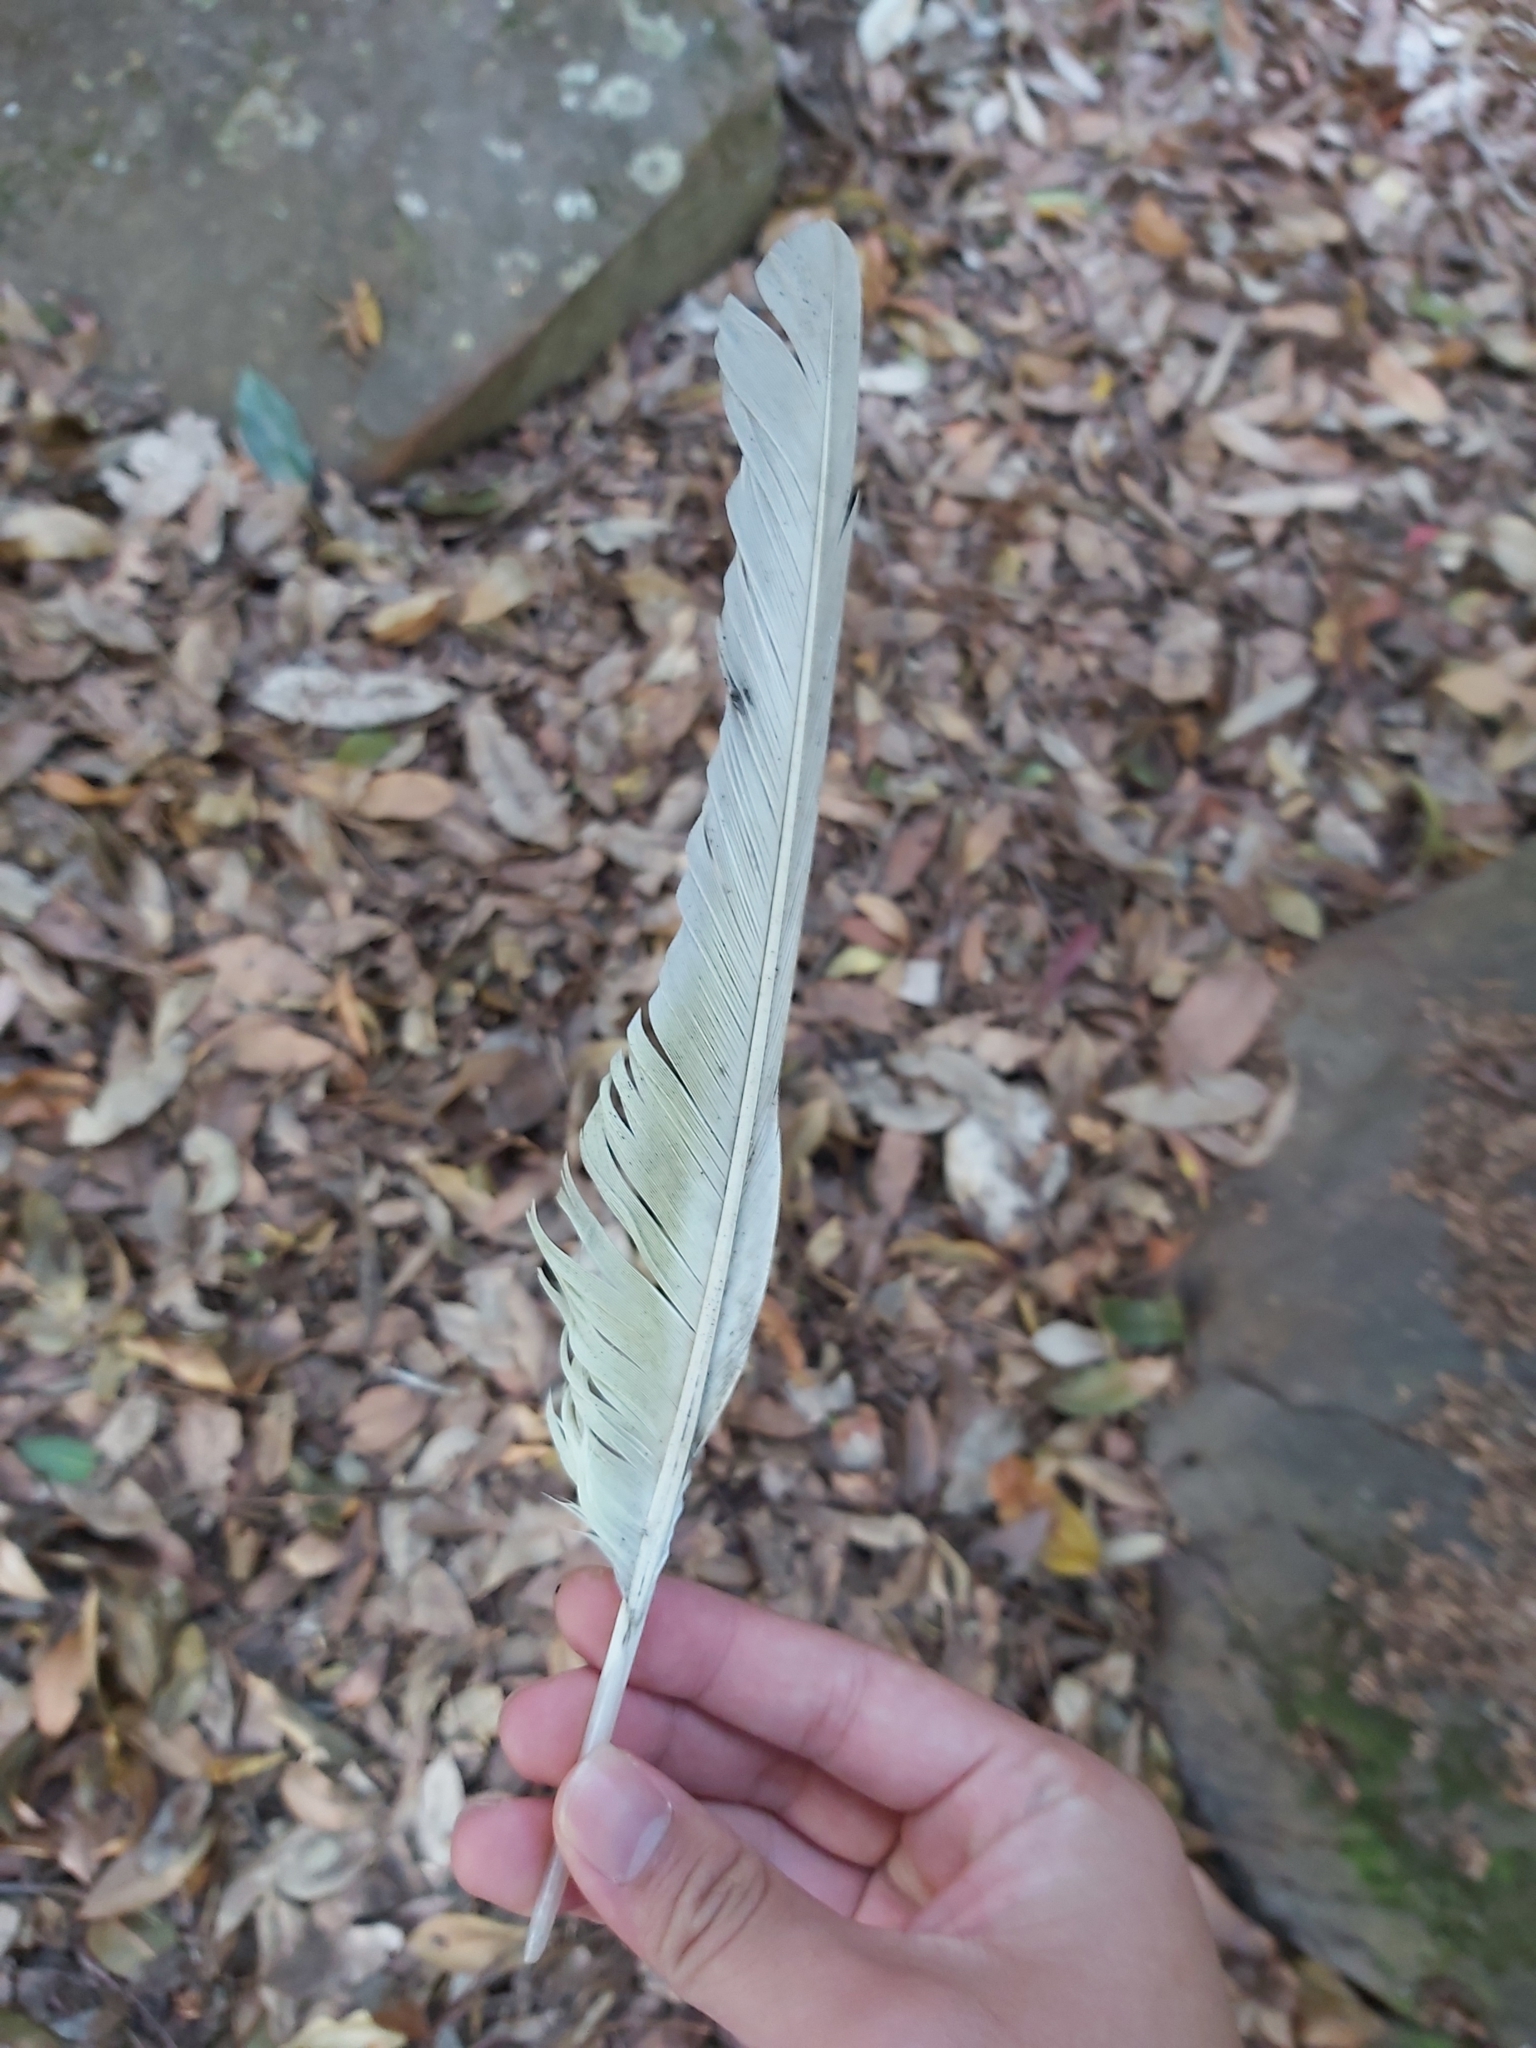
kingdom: Animalia
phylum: Chordata
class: Aves
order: Psittaciformes
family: Psittacidae
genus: Cacatua
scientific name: Cacatua galerita
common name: Sulphur-crested cockatoo
